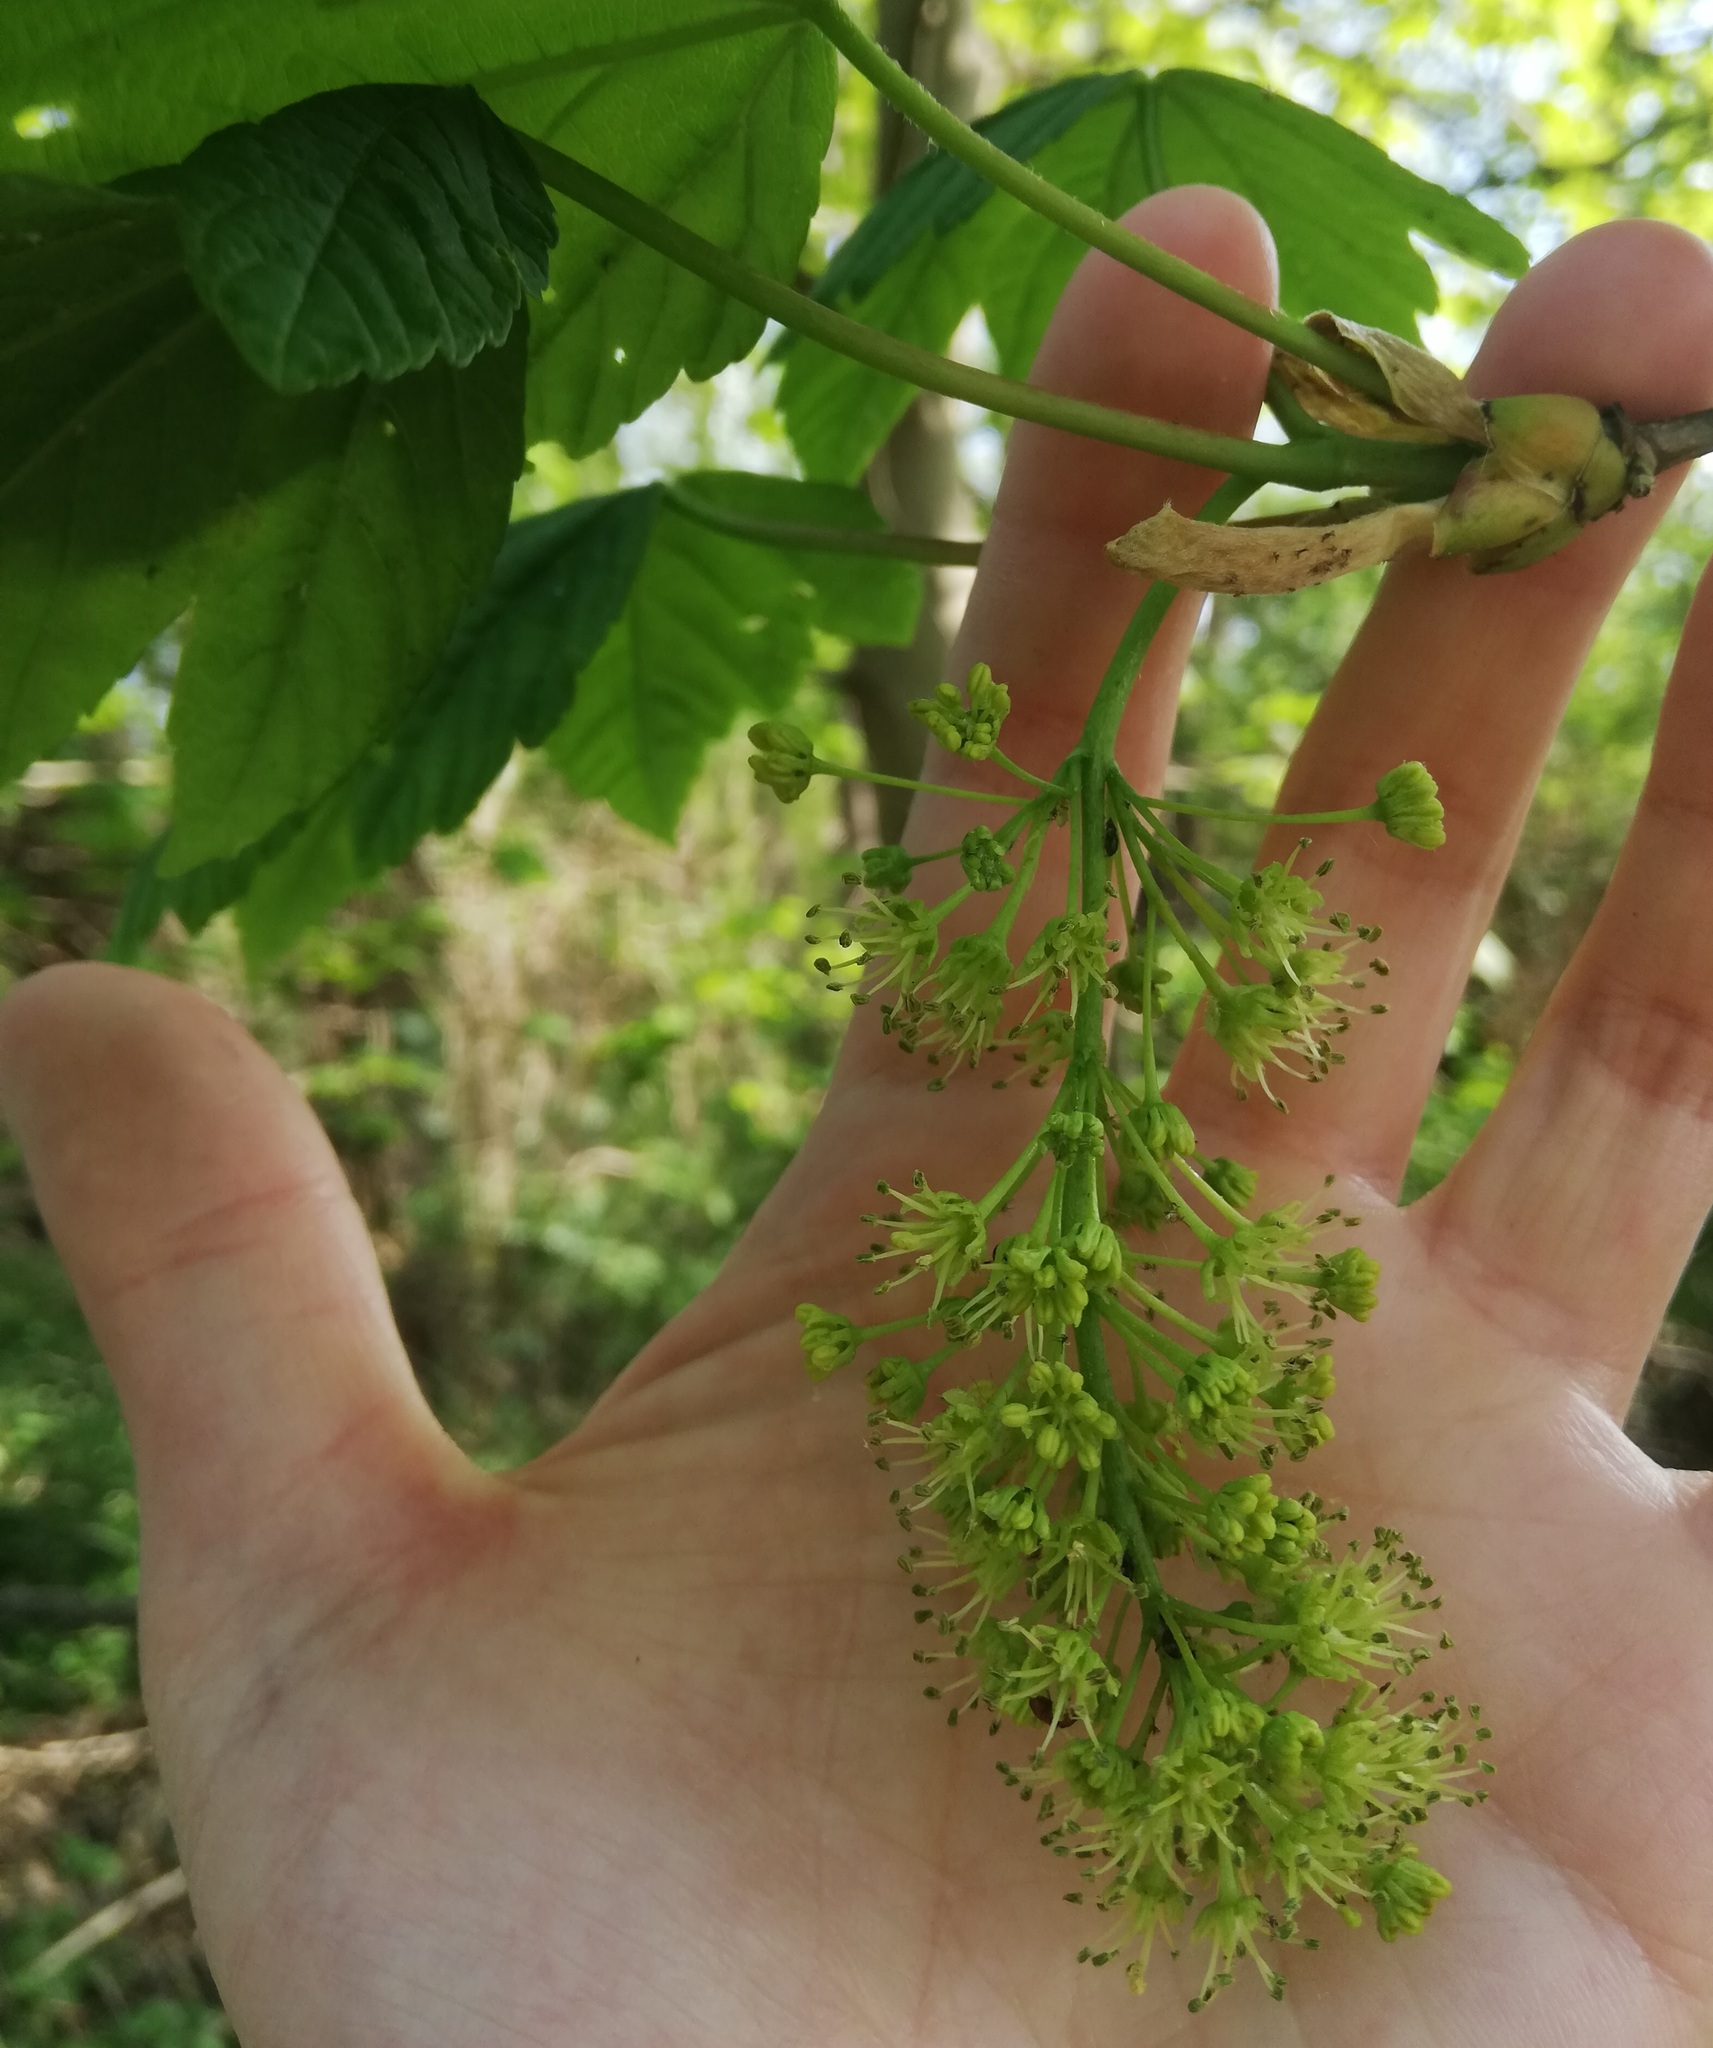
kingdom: Plantae
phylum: Tracheophyta
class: Magnoliopsida
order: Sapindales
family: Sapindaceae
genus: Acer
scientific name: Acer pseudoplatanus
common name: Sycamore
